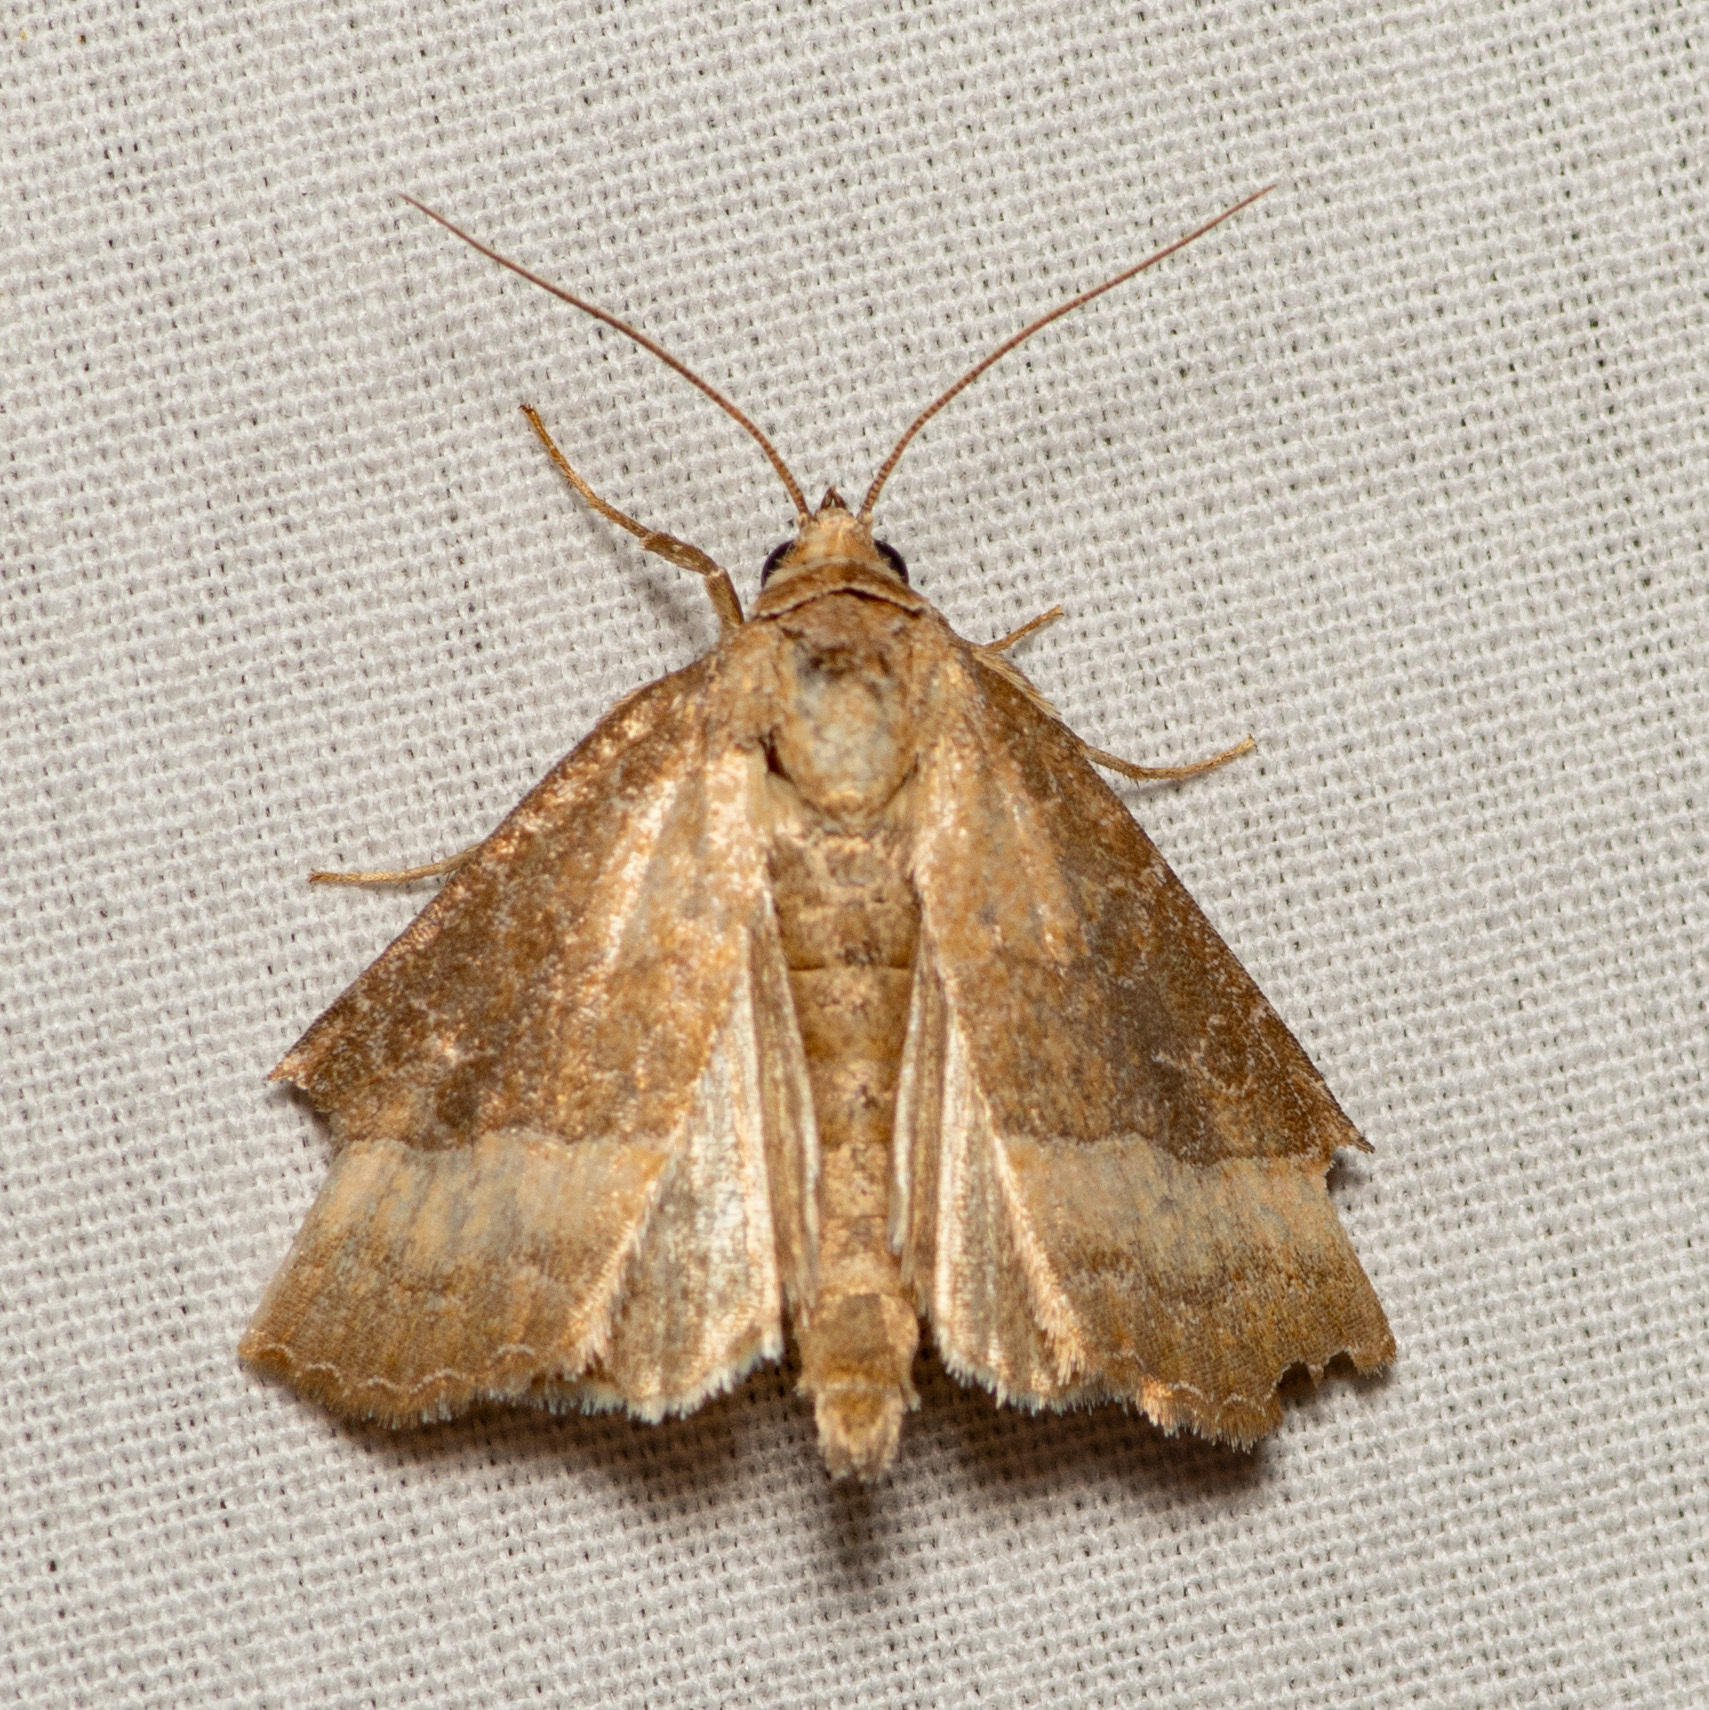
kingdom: Animalia
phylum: Arthropoda
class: Insecta
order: Lepidoptera
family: Noctuidae
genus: Ogdoconta
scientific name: Ogdoconta cinereola
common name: Common pinkband
